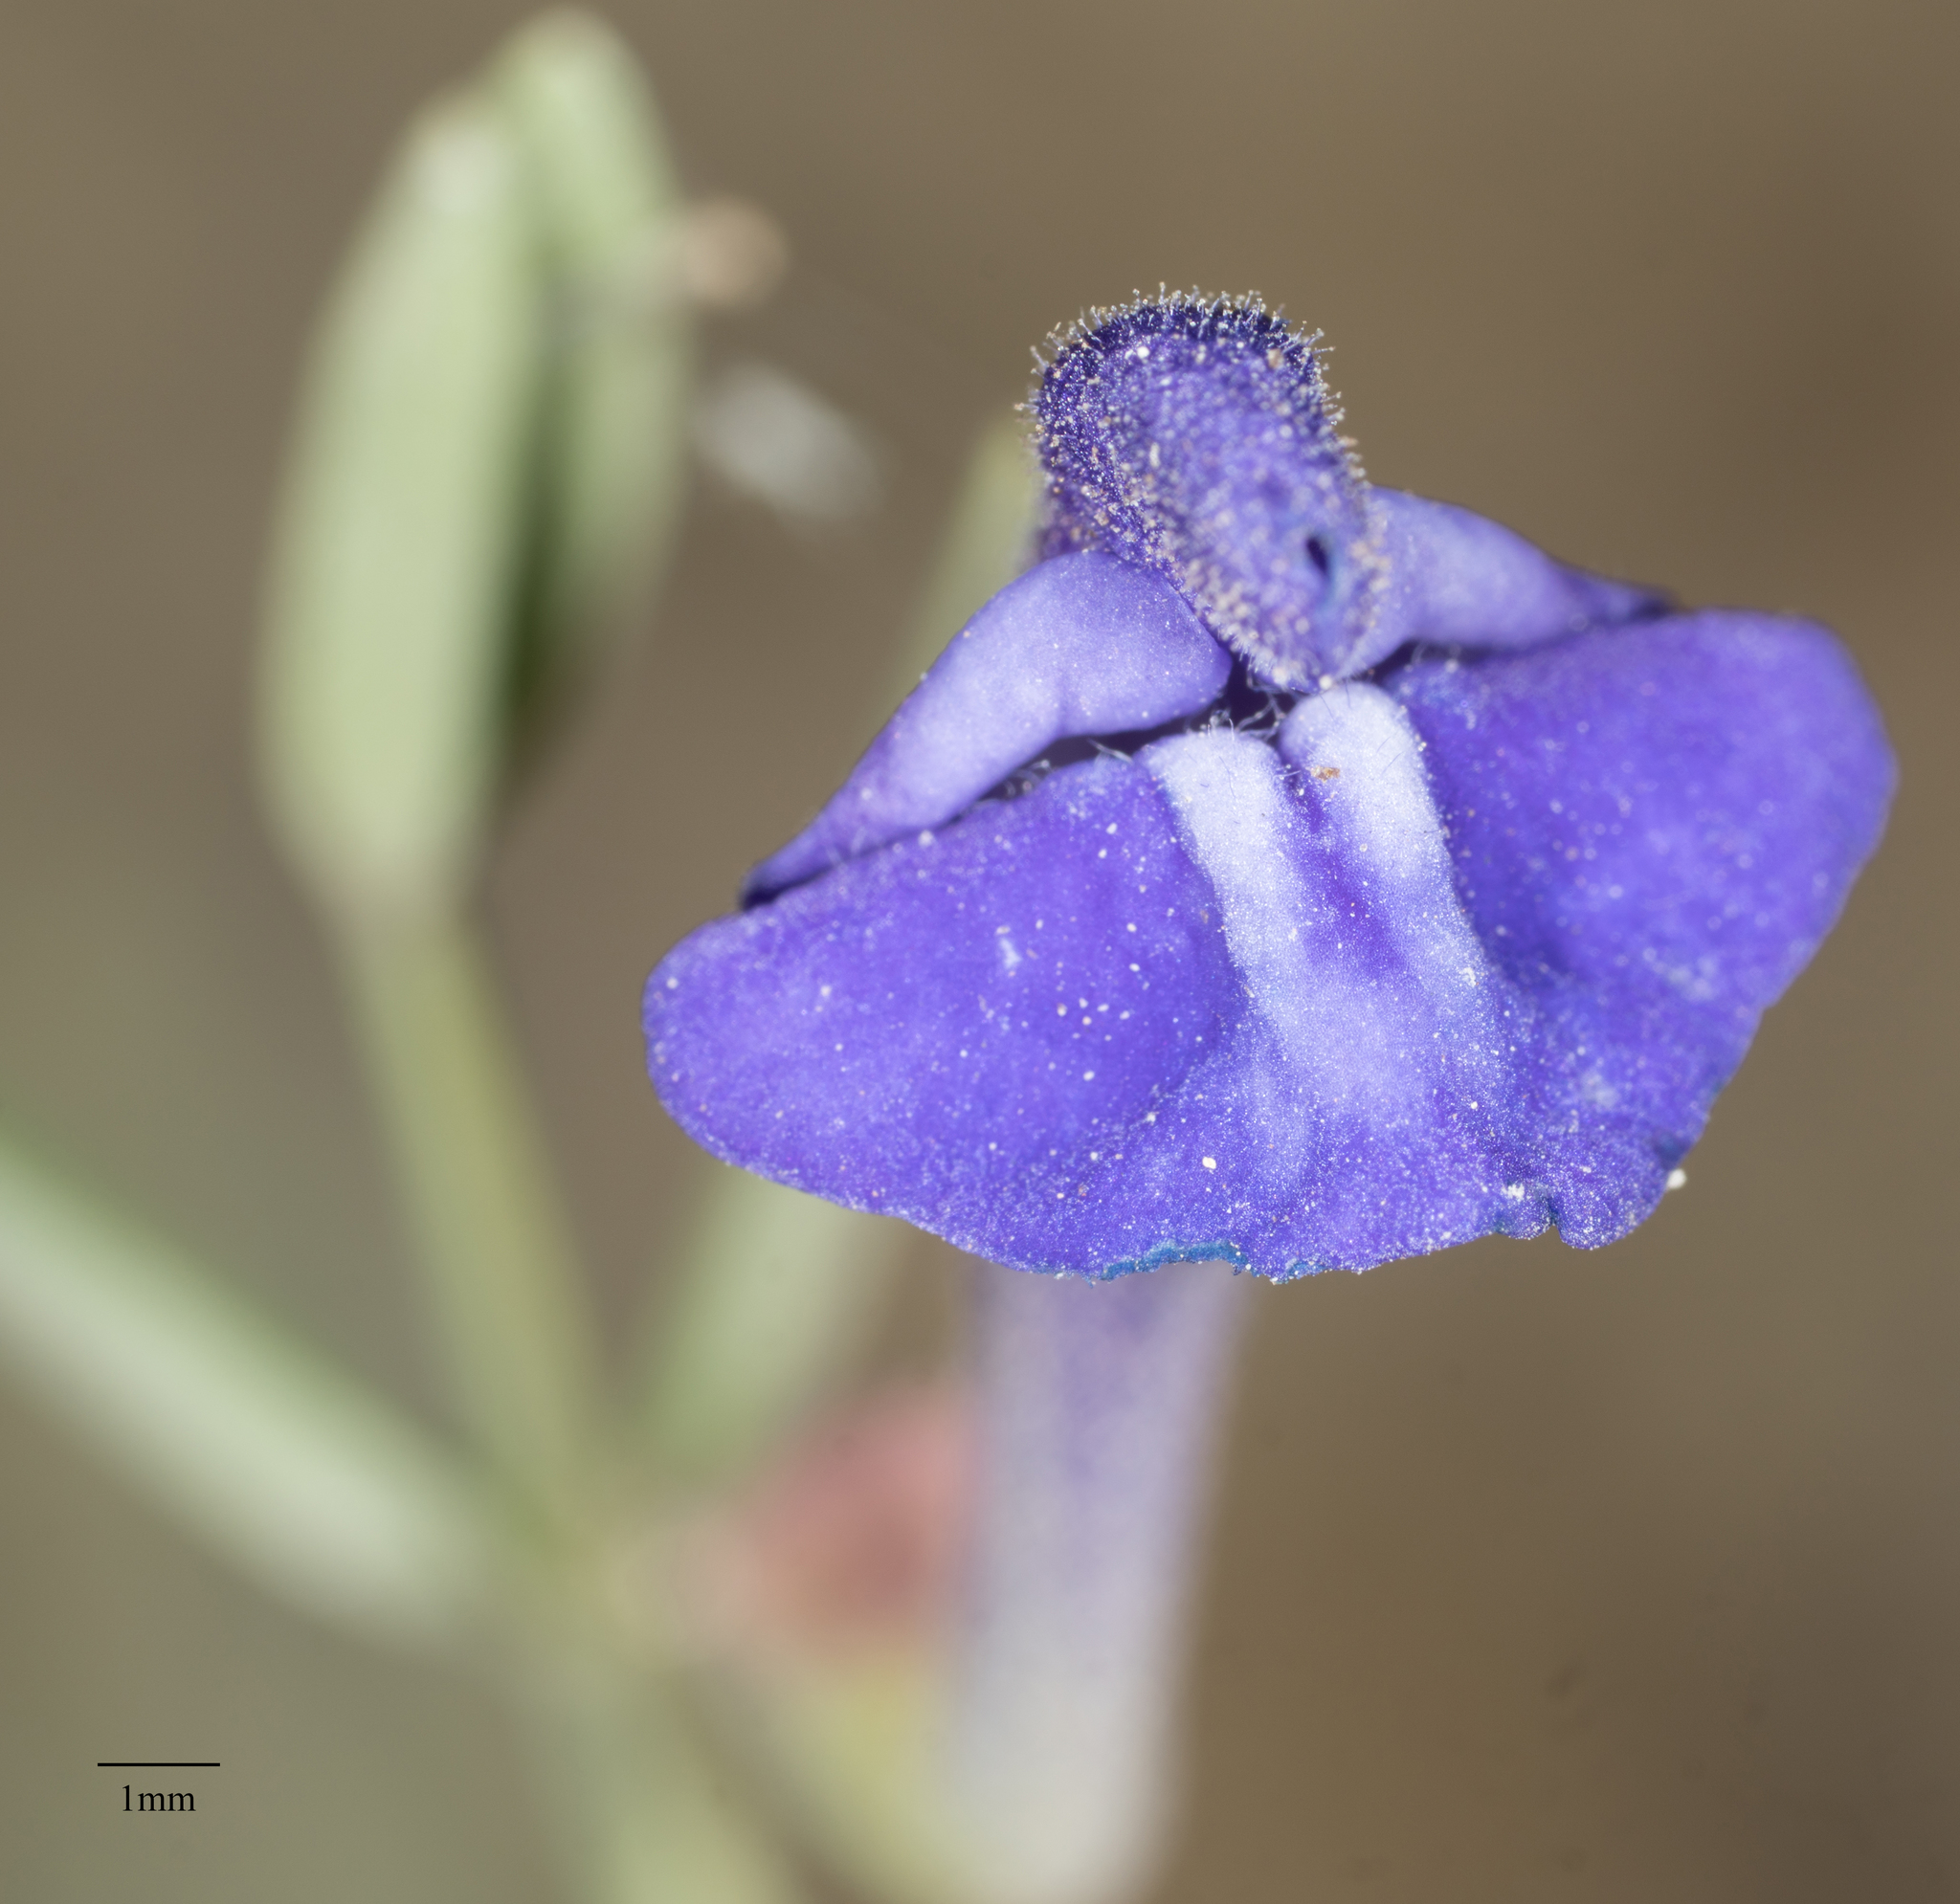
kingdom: Plantae
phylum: Tracheophyta
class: Magnoliopsida
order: Lamiales
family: Lamiaceae
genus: Scutellaria
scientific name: Scutellaria siphocampyloides
